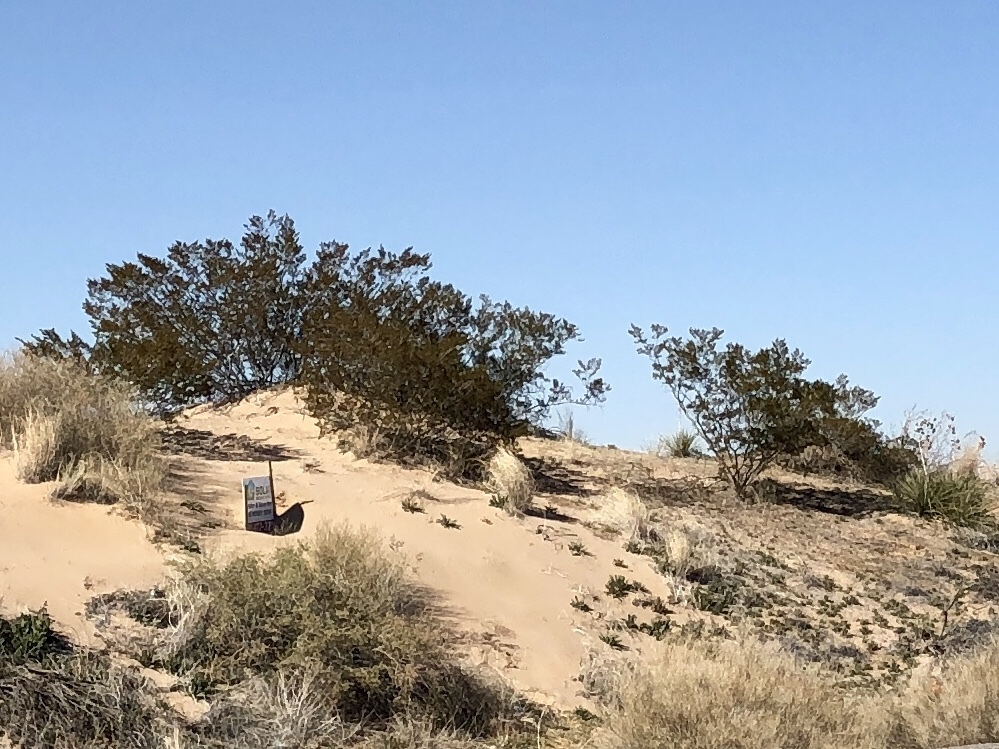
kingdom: Plantae
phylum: Tracheophyta
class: Magnoliopsida
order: Zygophyllales
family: Zygophyllaceae
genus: Larrea
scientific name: Larrea tridentata
